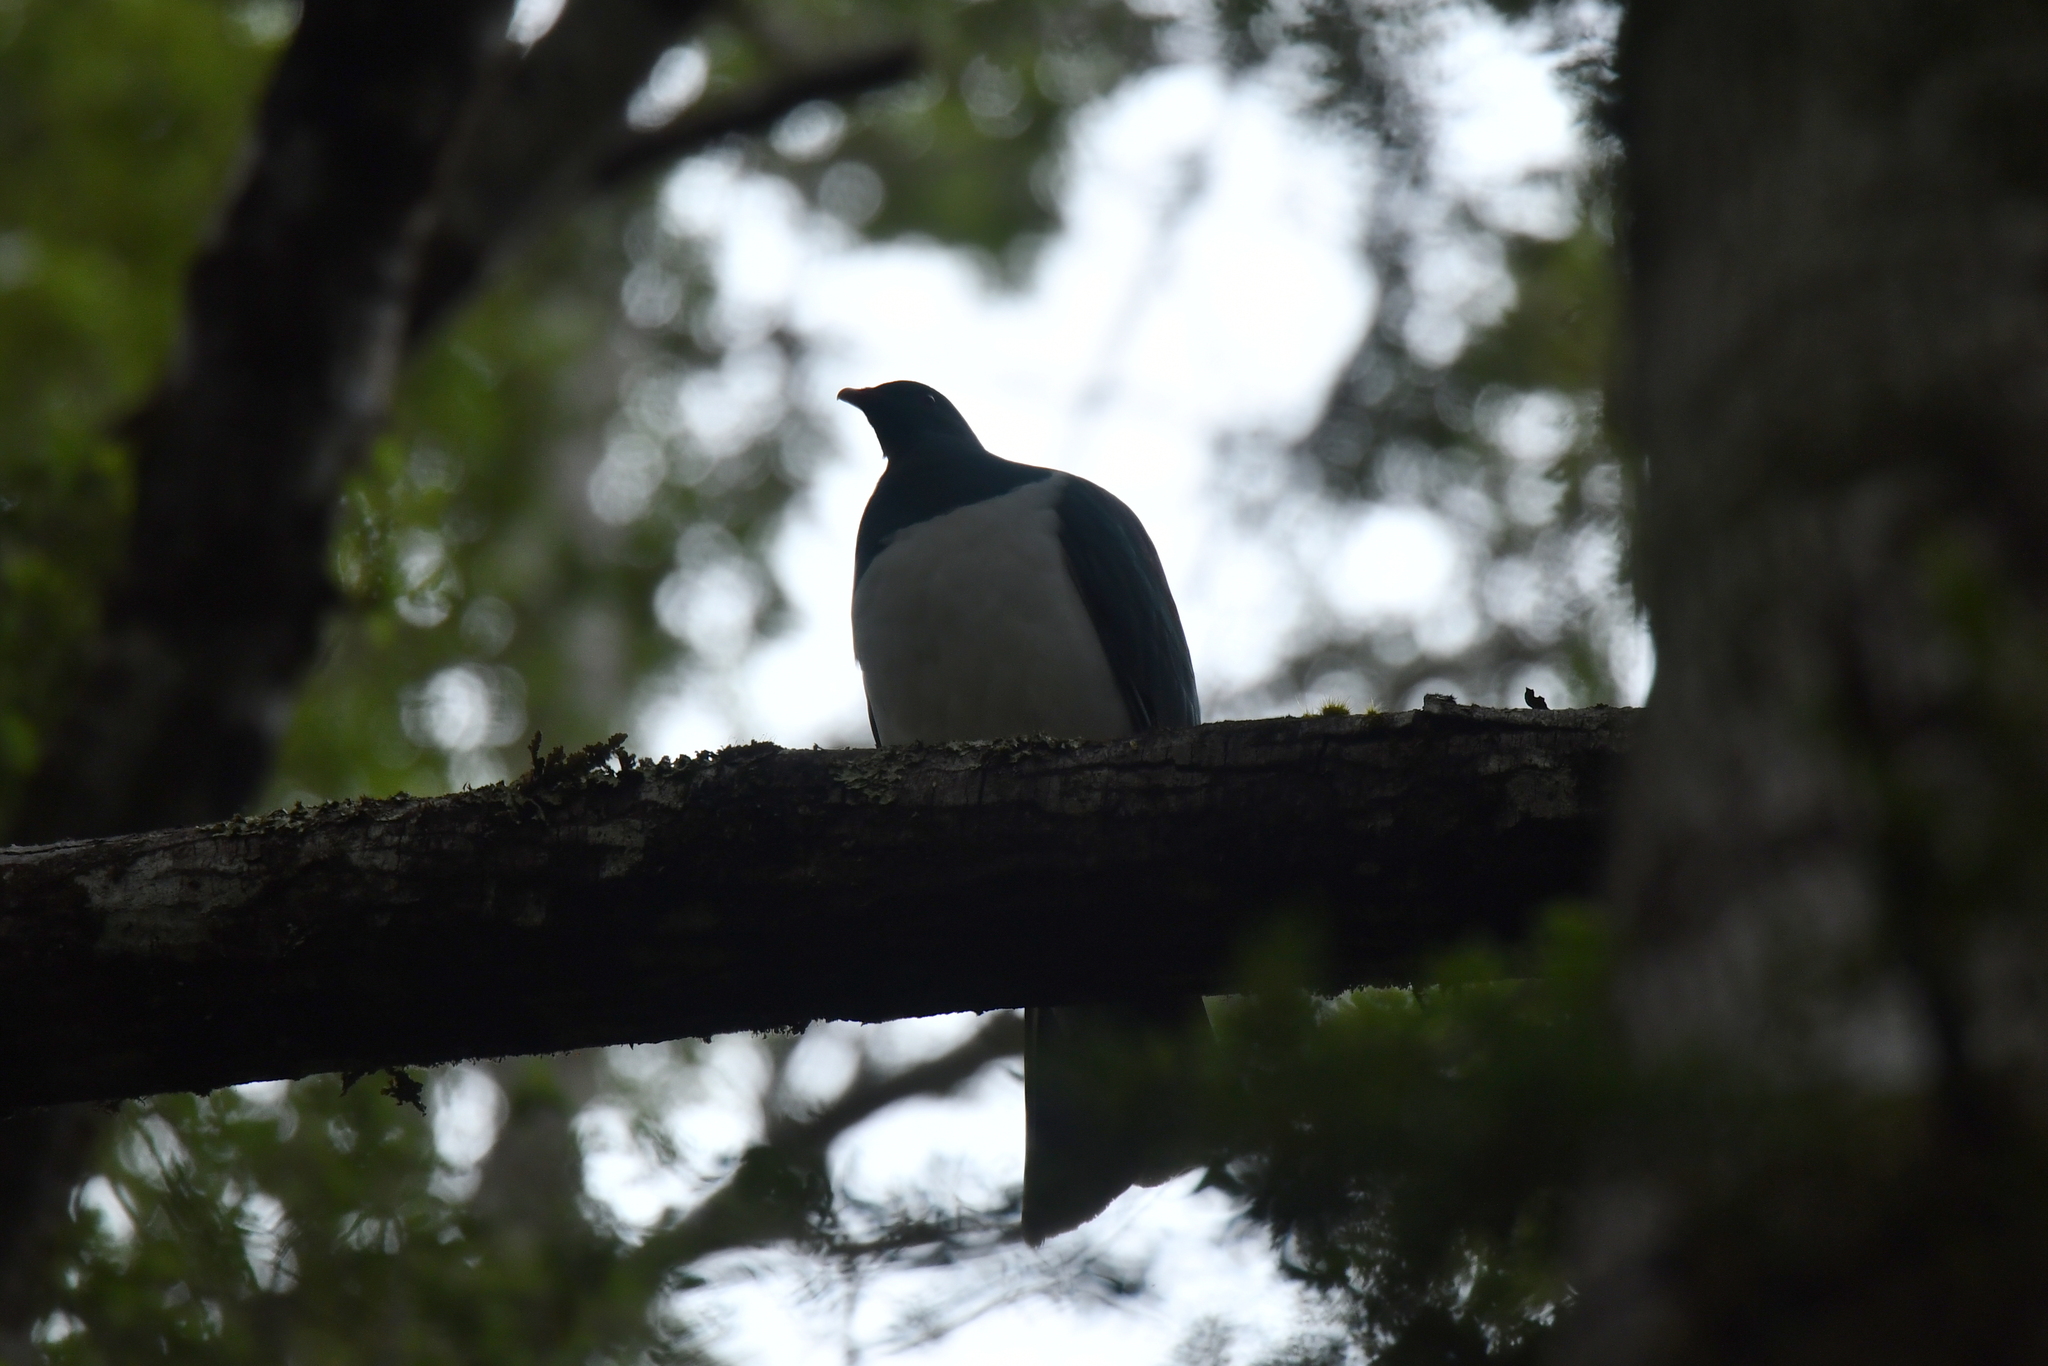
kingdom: Animalia
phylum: Chordata
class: Aves
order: Columbiformes
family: Columbidae
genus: Hemiphaga
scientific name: Hemiphaga novaeseelandiae
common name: New zealand pigeon
